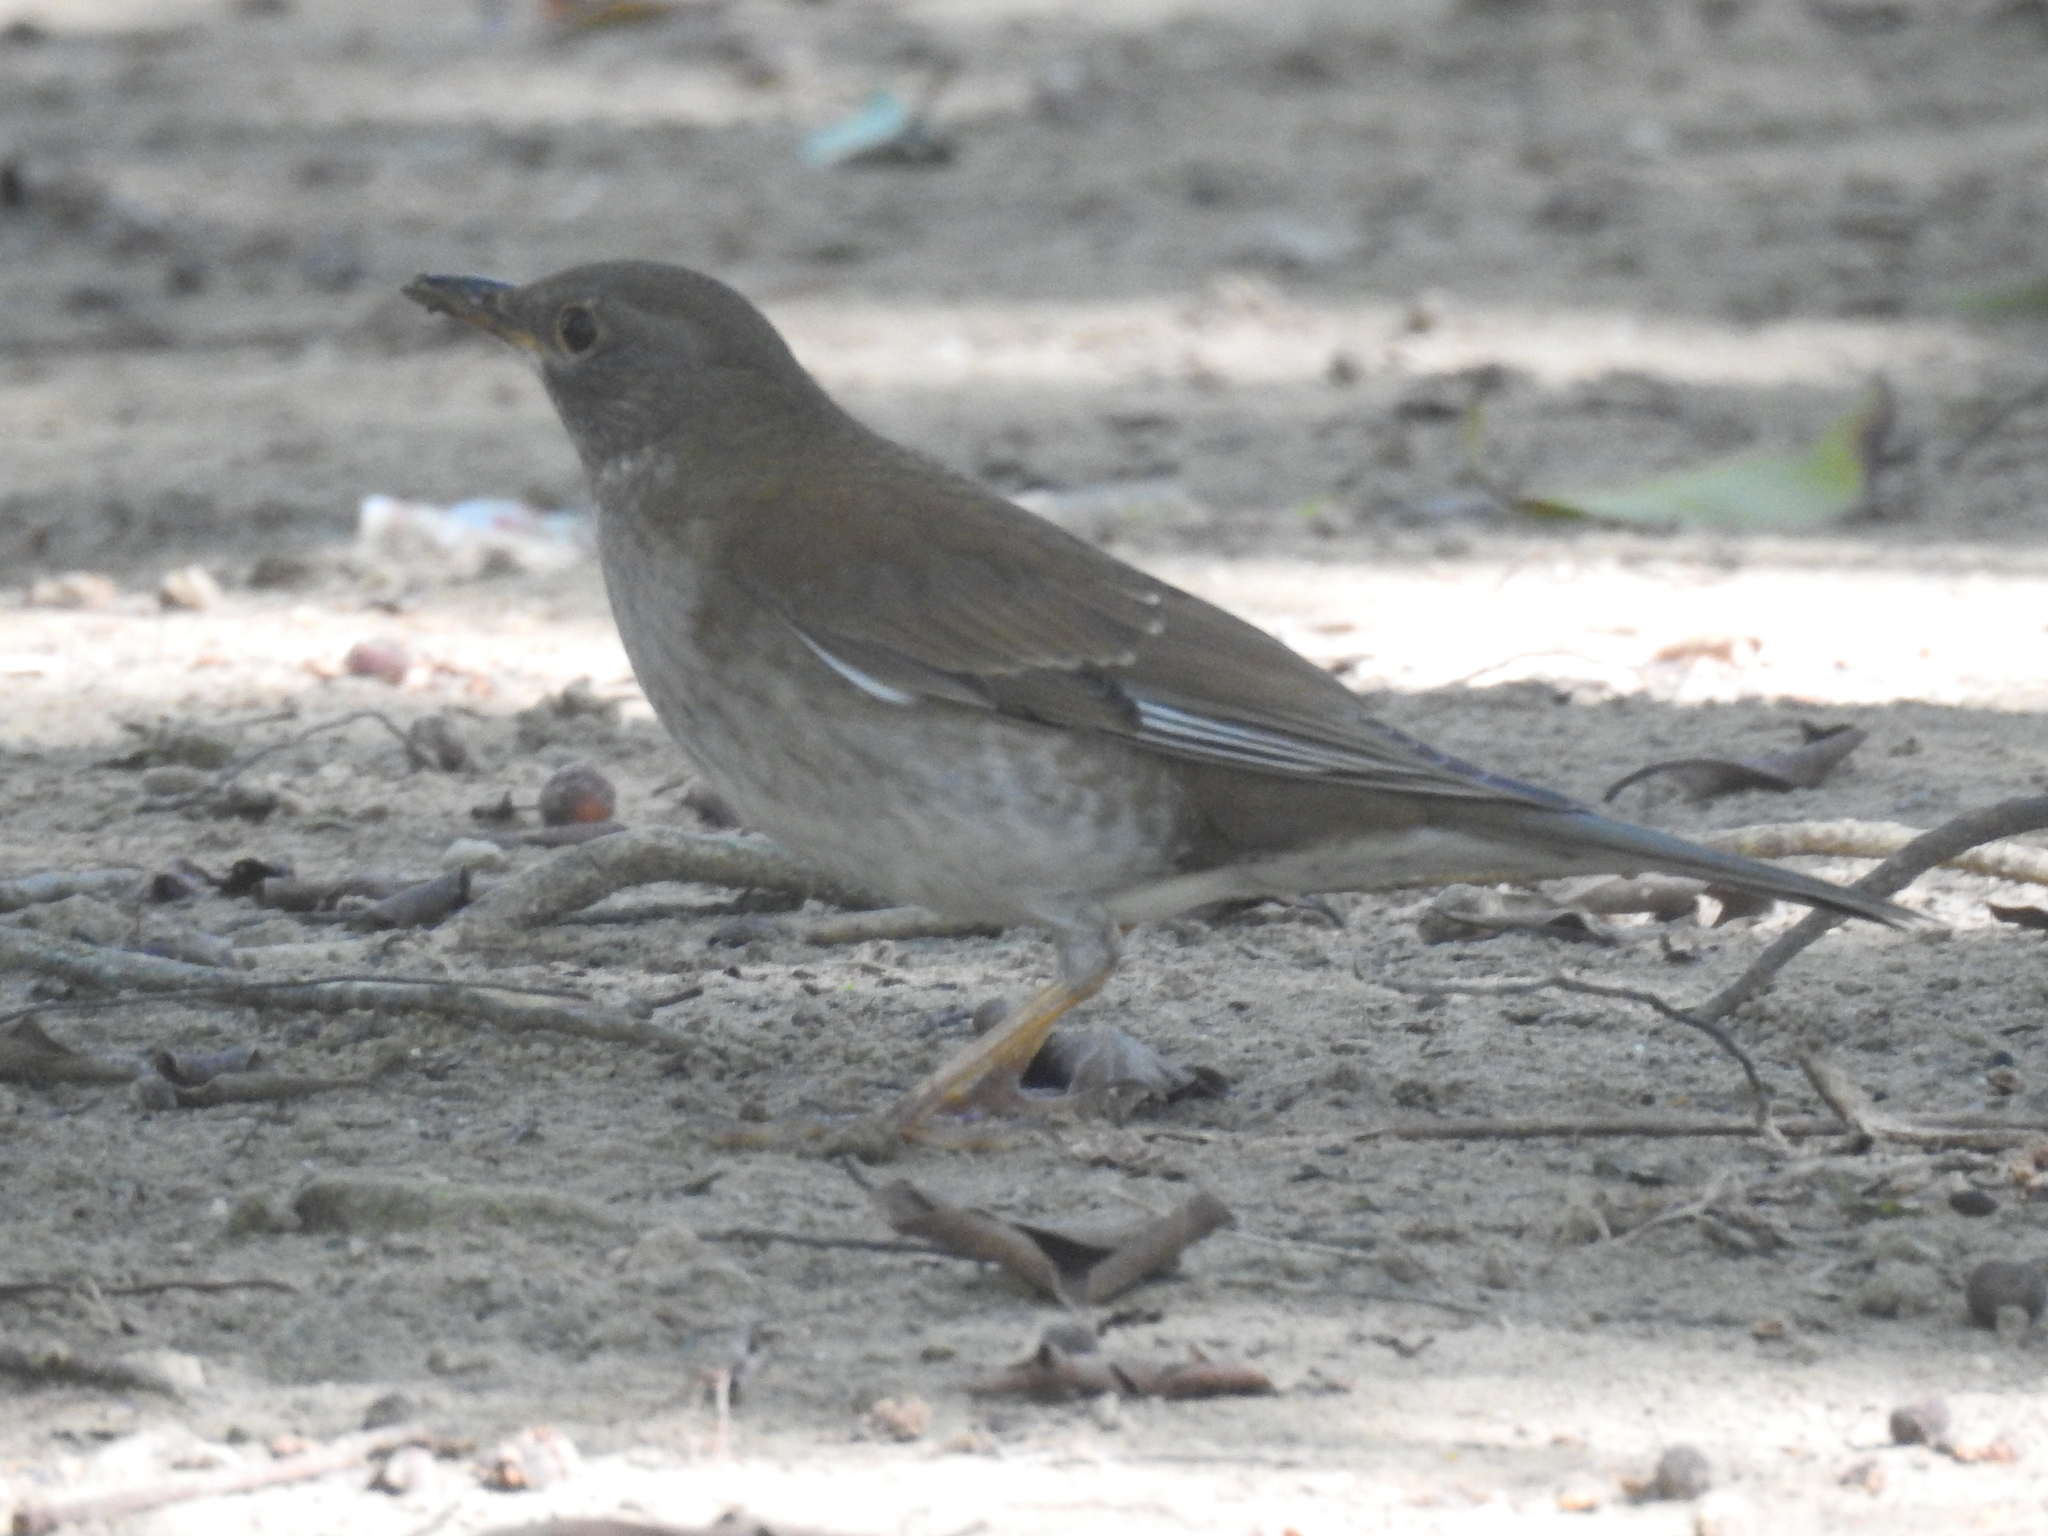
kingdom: Animalia
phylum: Chordata
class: Aves
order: Passeriformes
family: Turdidae
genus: Turdus
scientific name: Turdus pallidus
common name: Pale thrush
